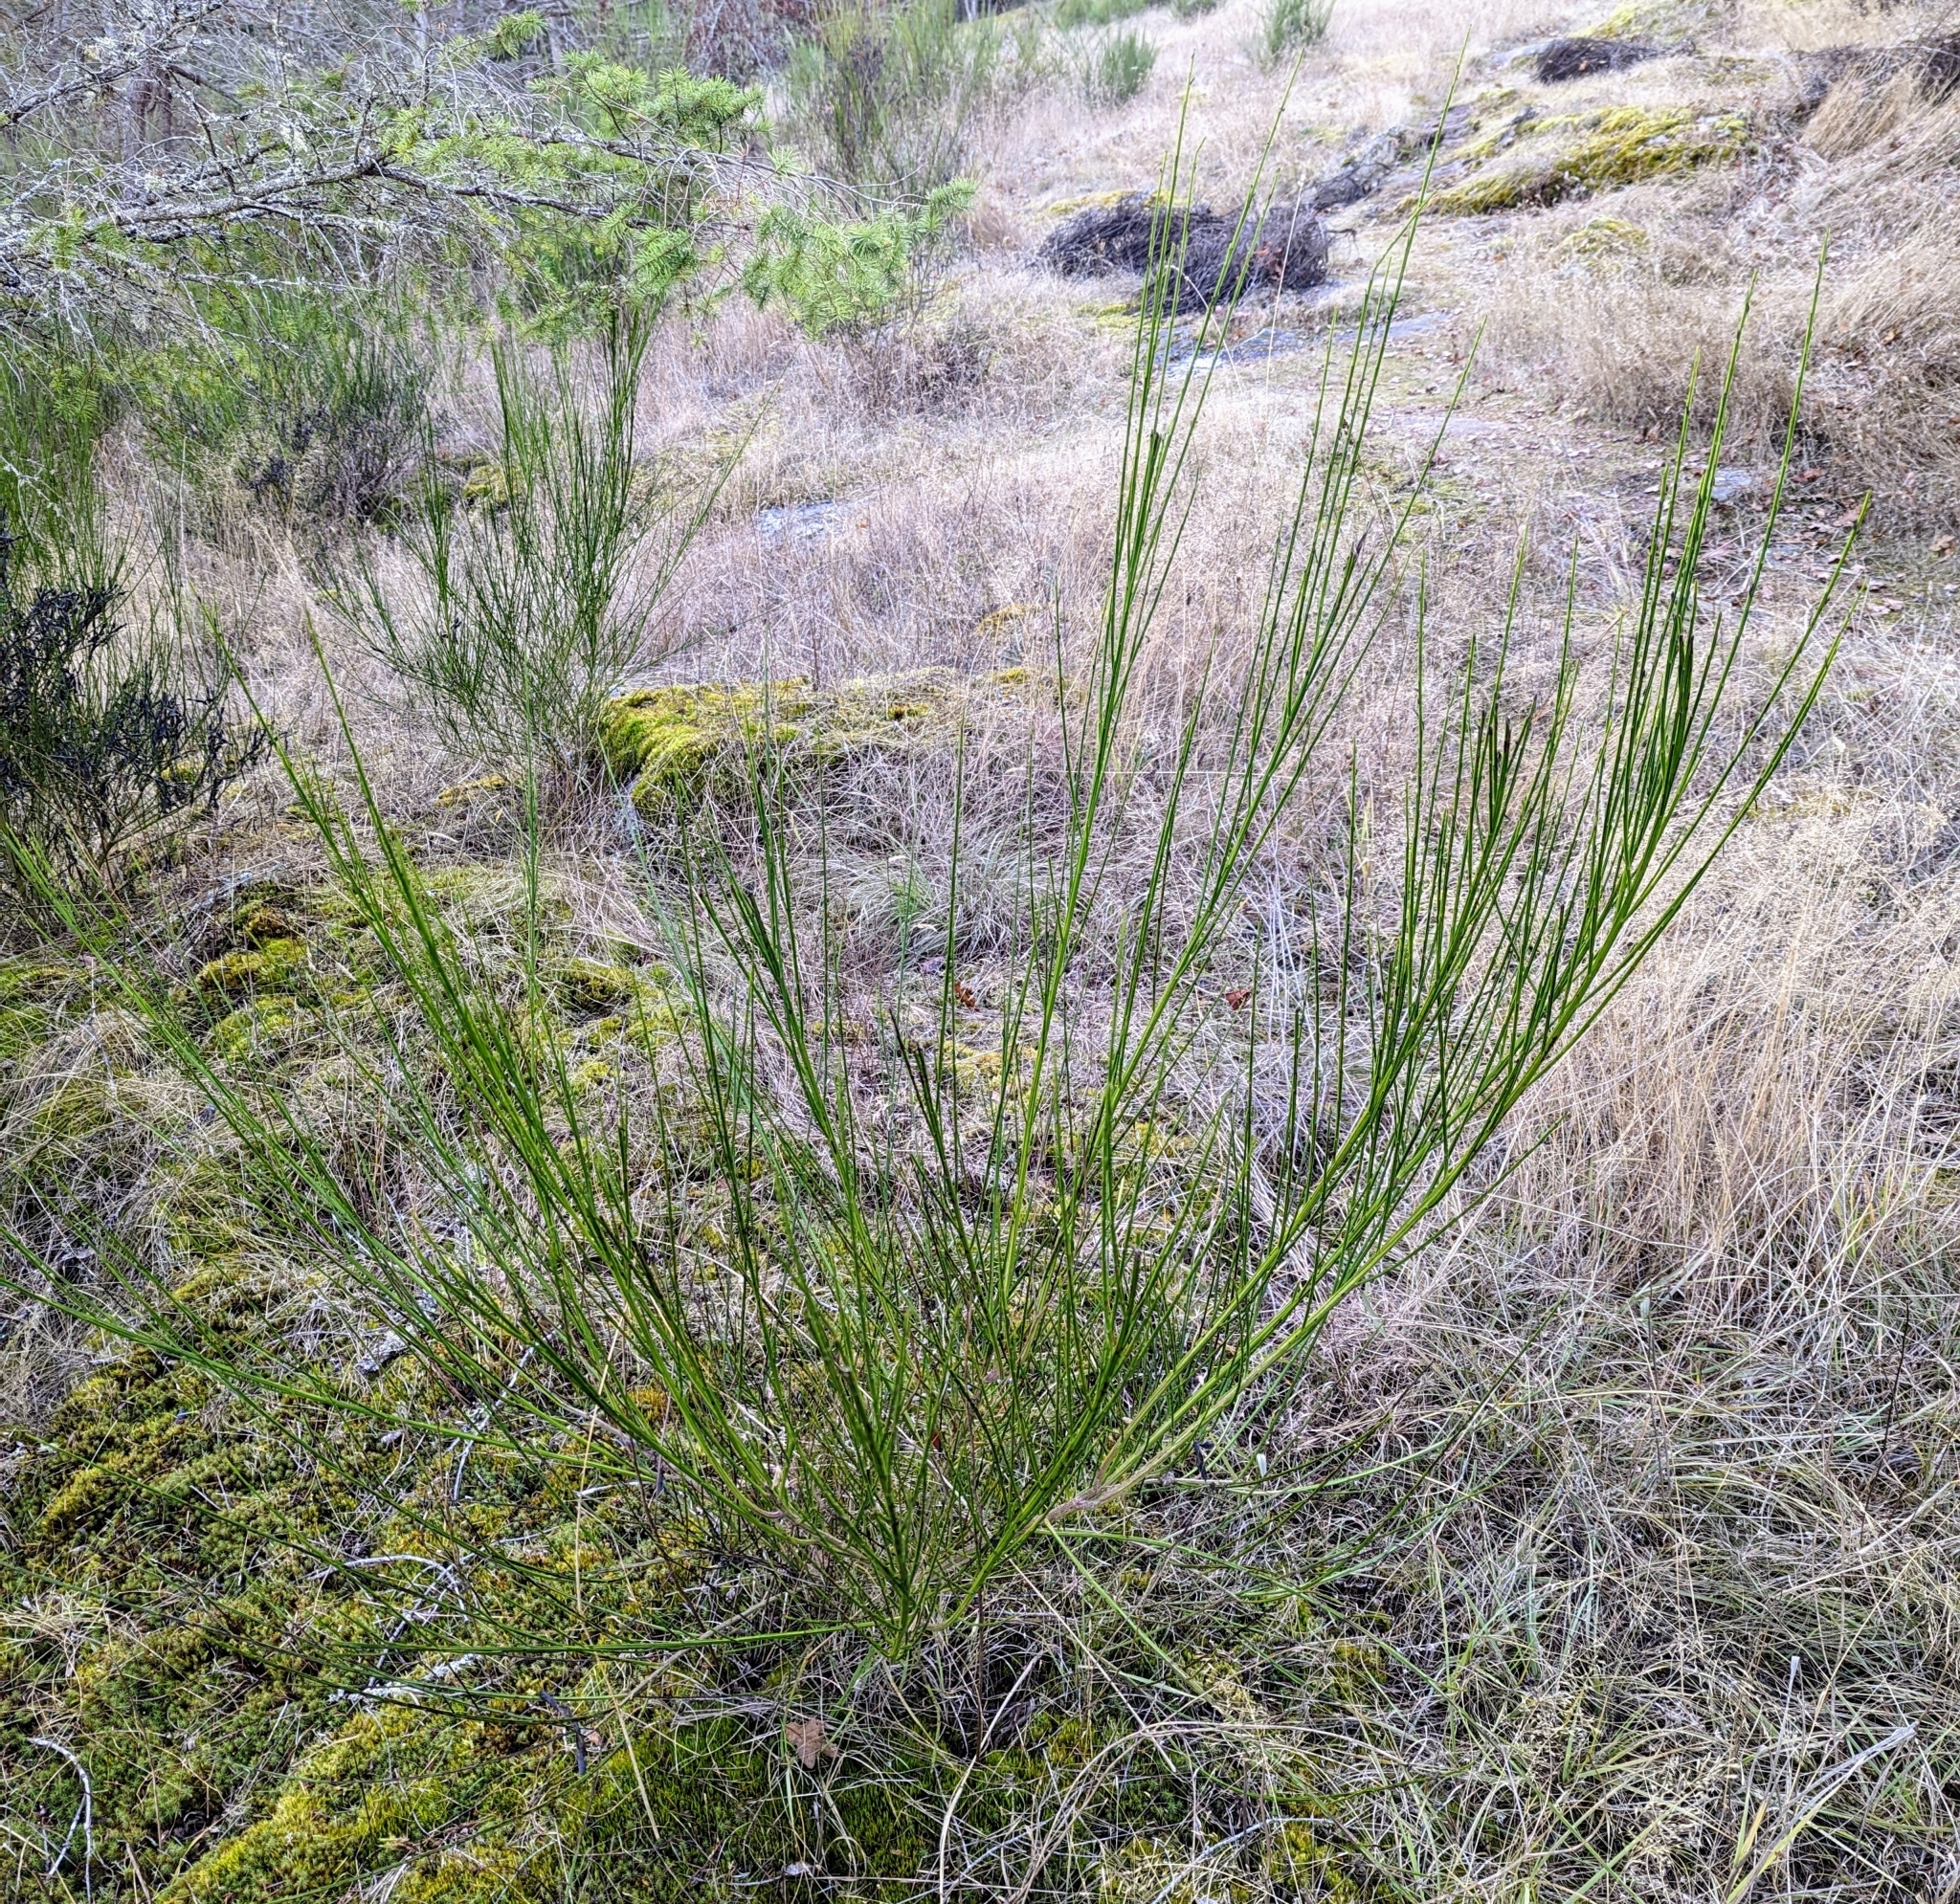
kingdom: Plantae
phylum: Tracheophyta
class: Magnoliopsida
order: Fabales
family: Fabaceae
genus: Cytisus
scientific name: Cytisus scoparius
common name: Scotch broom
